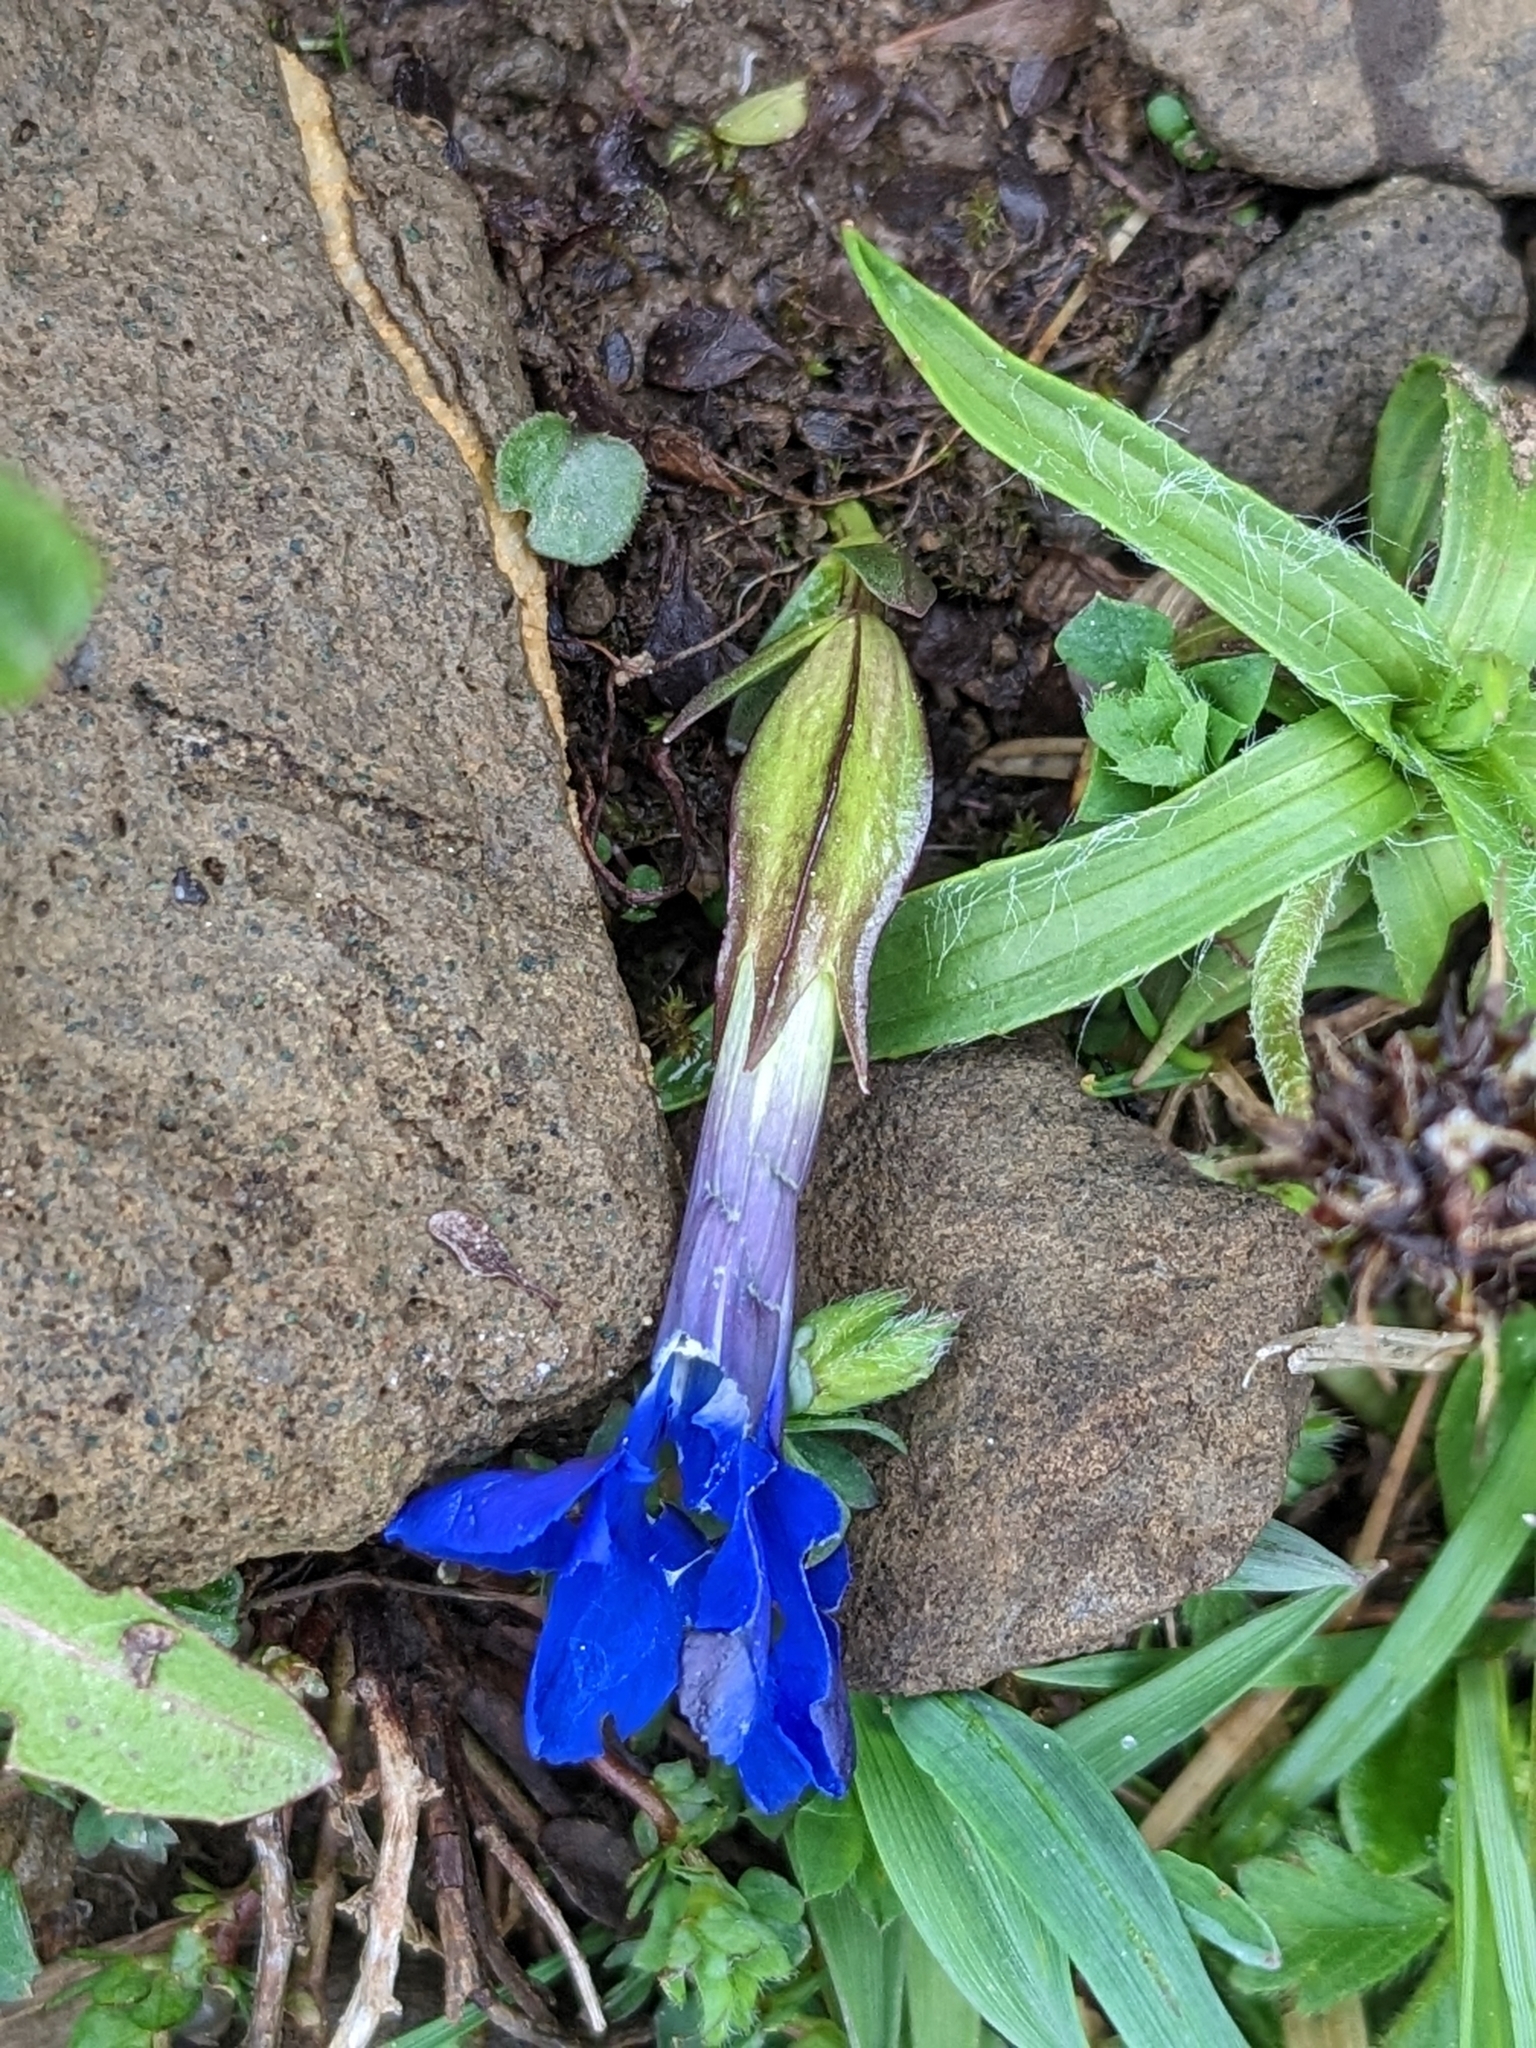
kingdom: Plantae
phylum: Tracheophyta
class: Magnoliopsida
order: Gentianales
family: Gentianaceae
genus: Gentiana
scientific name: Gentiana verna
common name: Spring gentian
